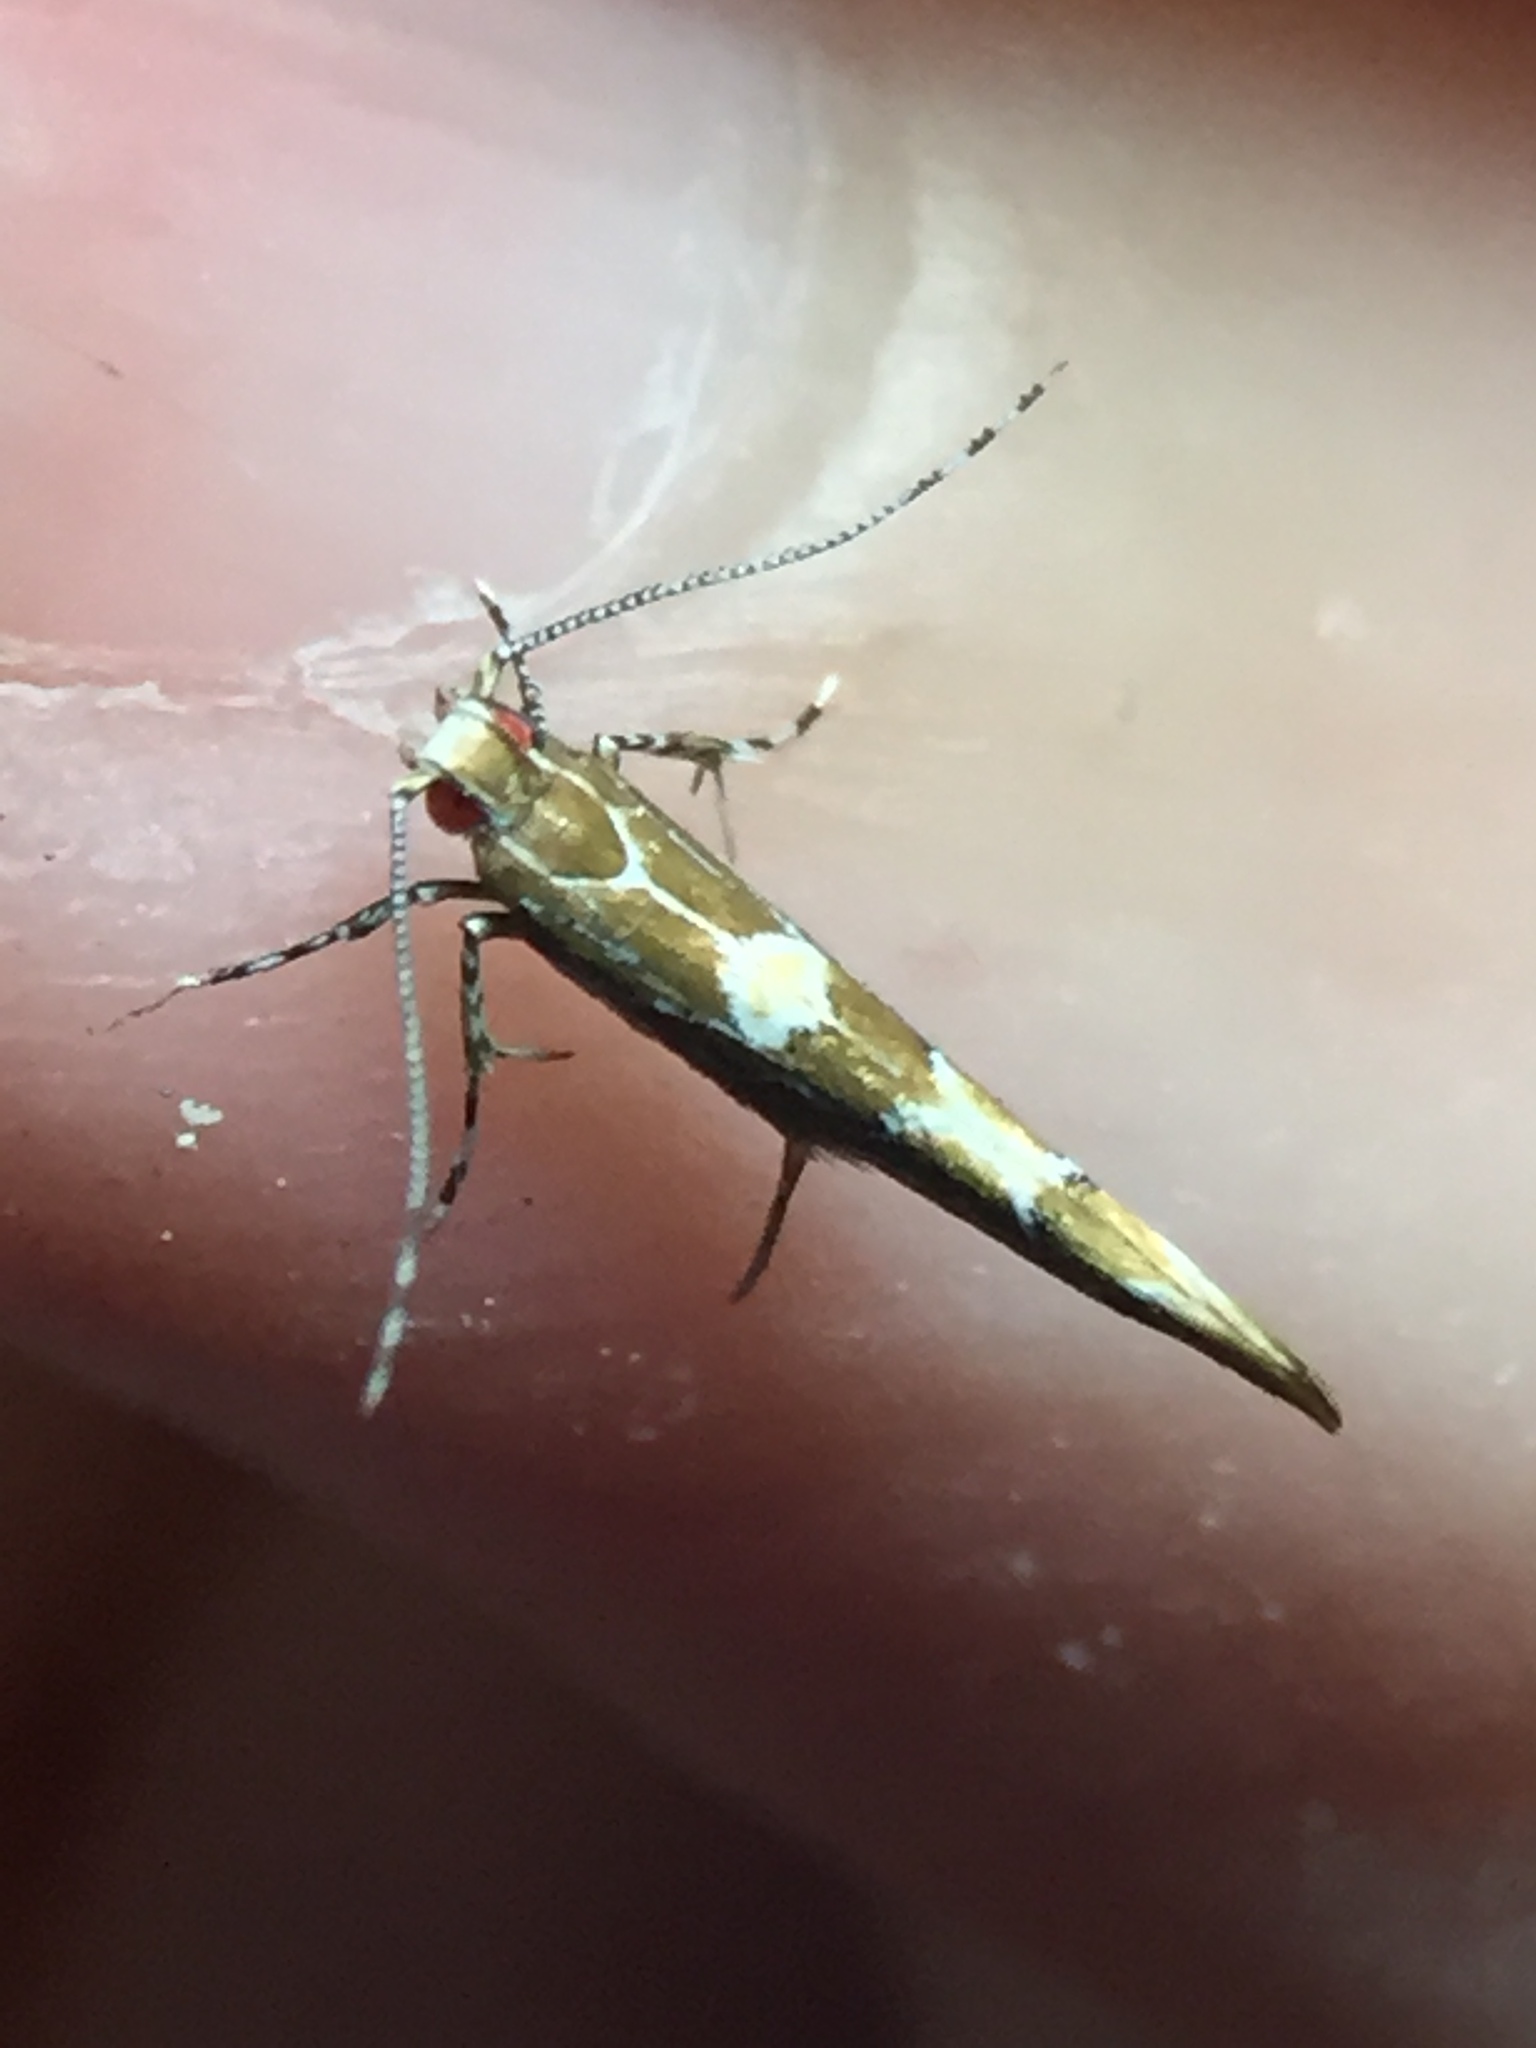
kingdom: Animalia
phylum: Arthropoda
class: Insecta
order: Lepidoptera
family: Cosmopterigidae
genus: Pyroderces
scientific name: Pyroderces apparitella
